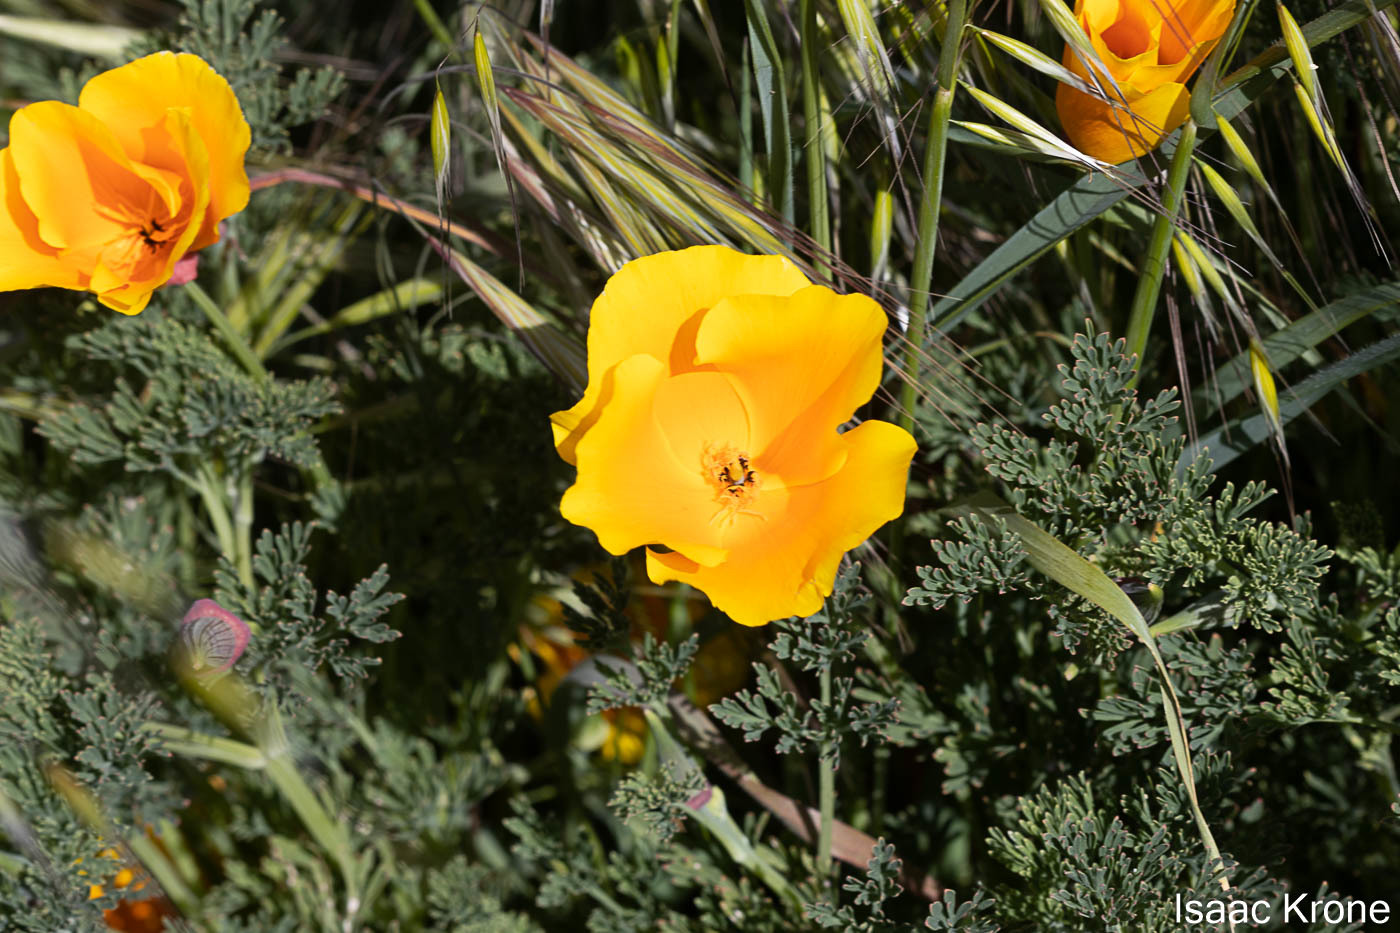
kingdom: Plantae
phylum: Tracheophyta
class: Magnoliopsida
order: Ranunculales
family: Papaveraceae
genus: Eschscholzia
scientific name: Eschscholzia californica
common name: California poppy
